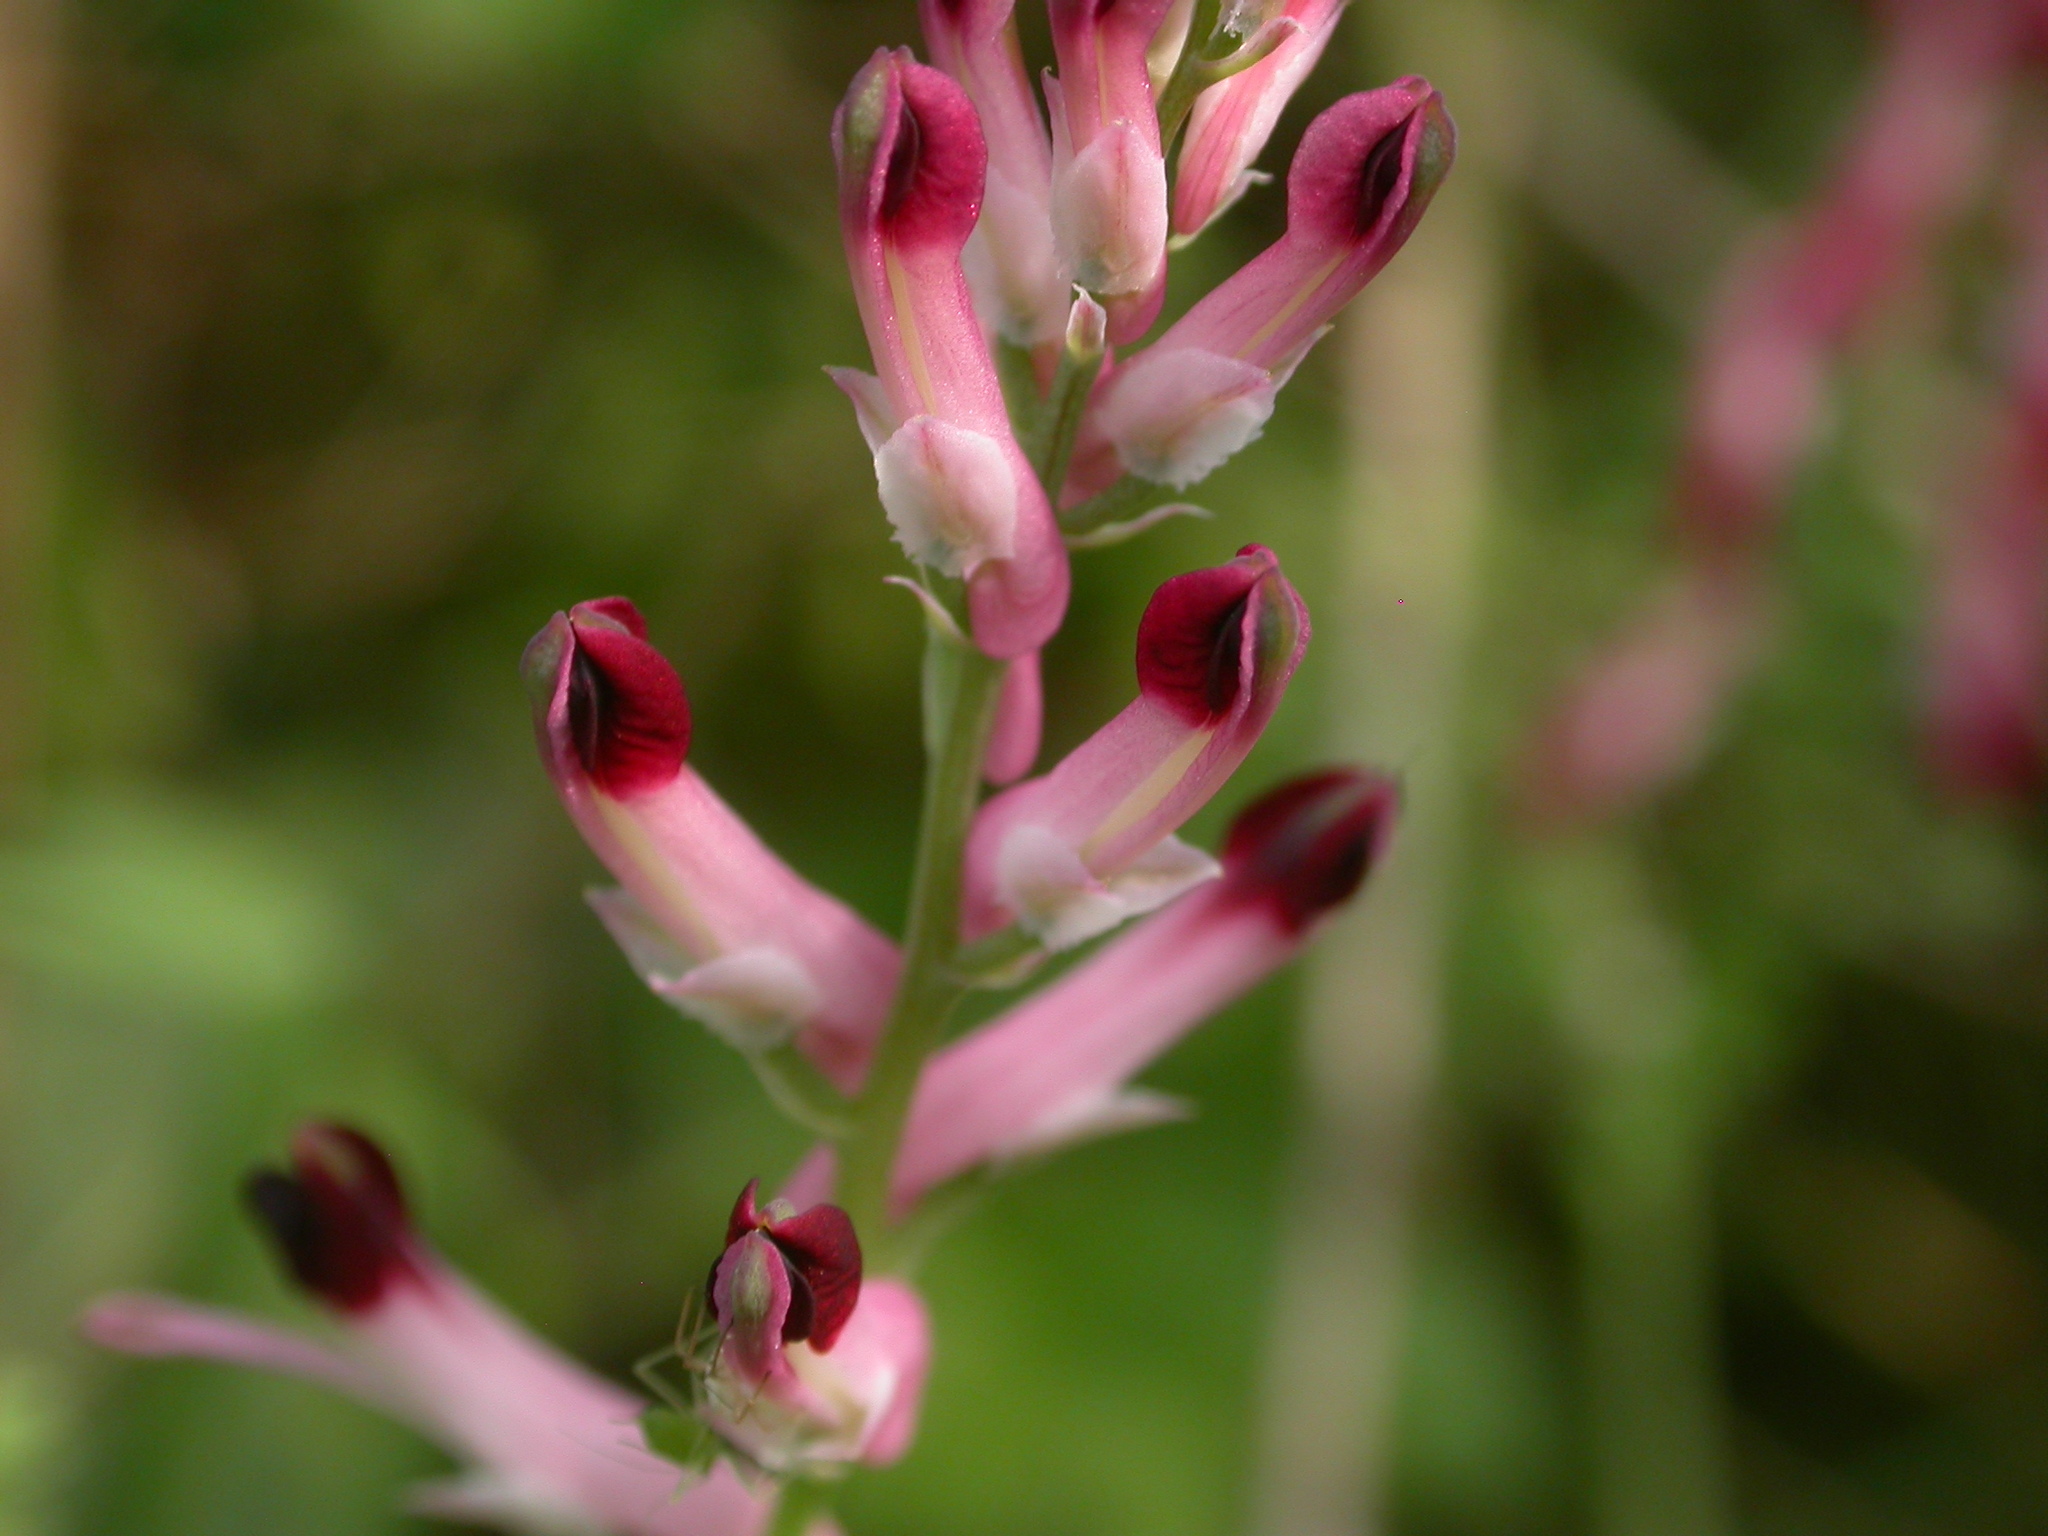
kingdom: Plantae
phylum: Tracheophyta
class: Magnoliopsida
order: Ranunculales
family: Papaveraceae
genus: Fumaria
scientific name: Fumaria
